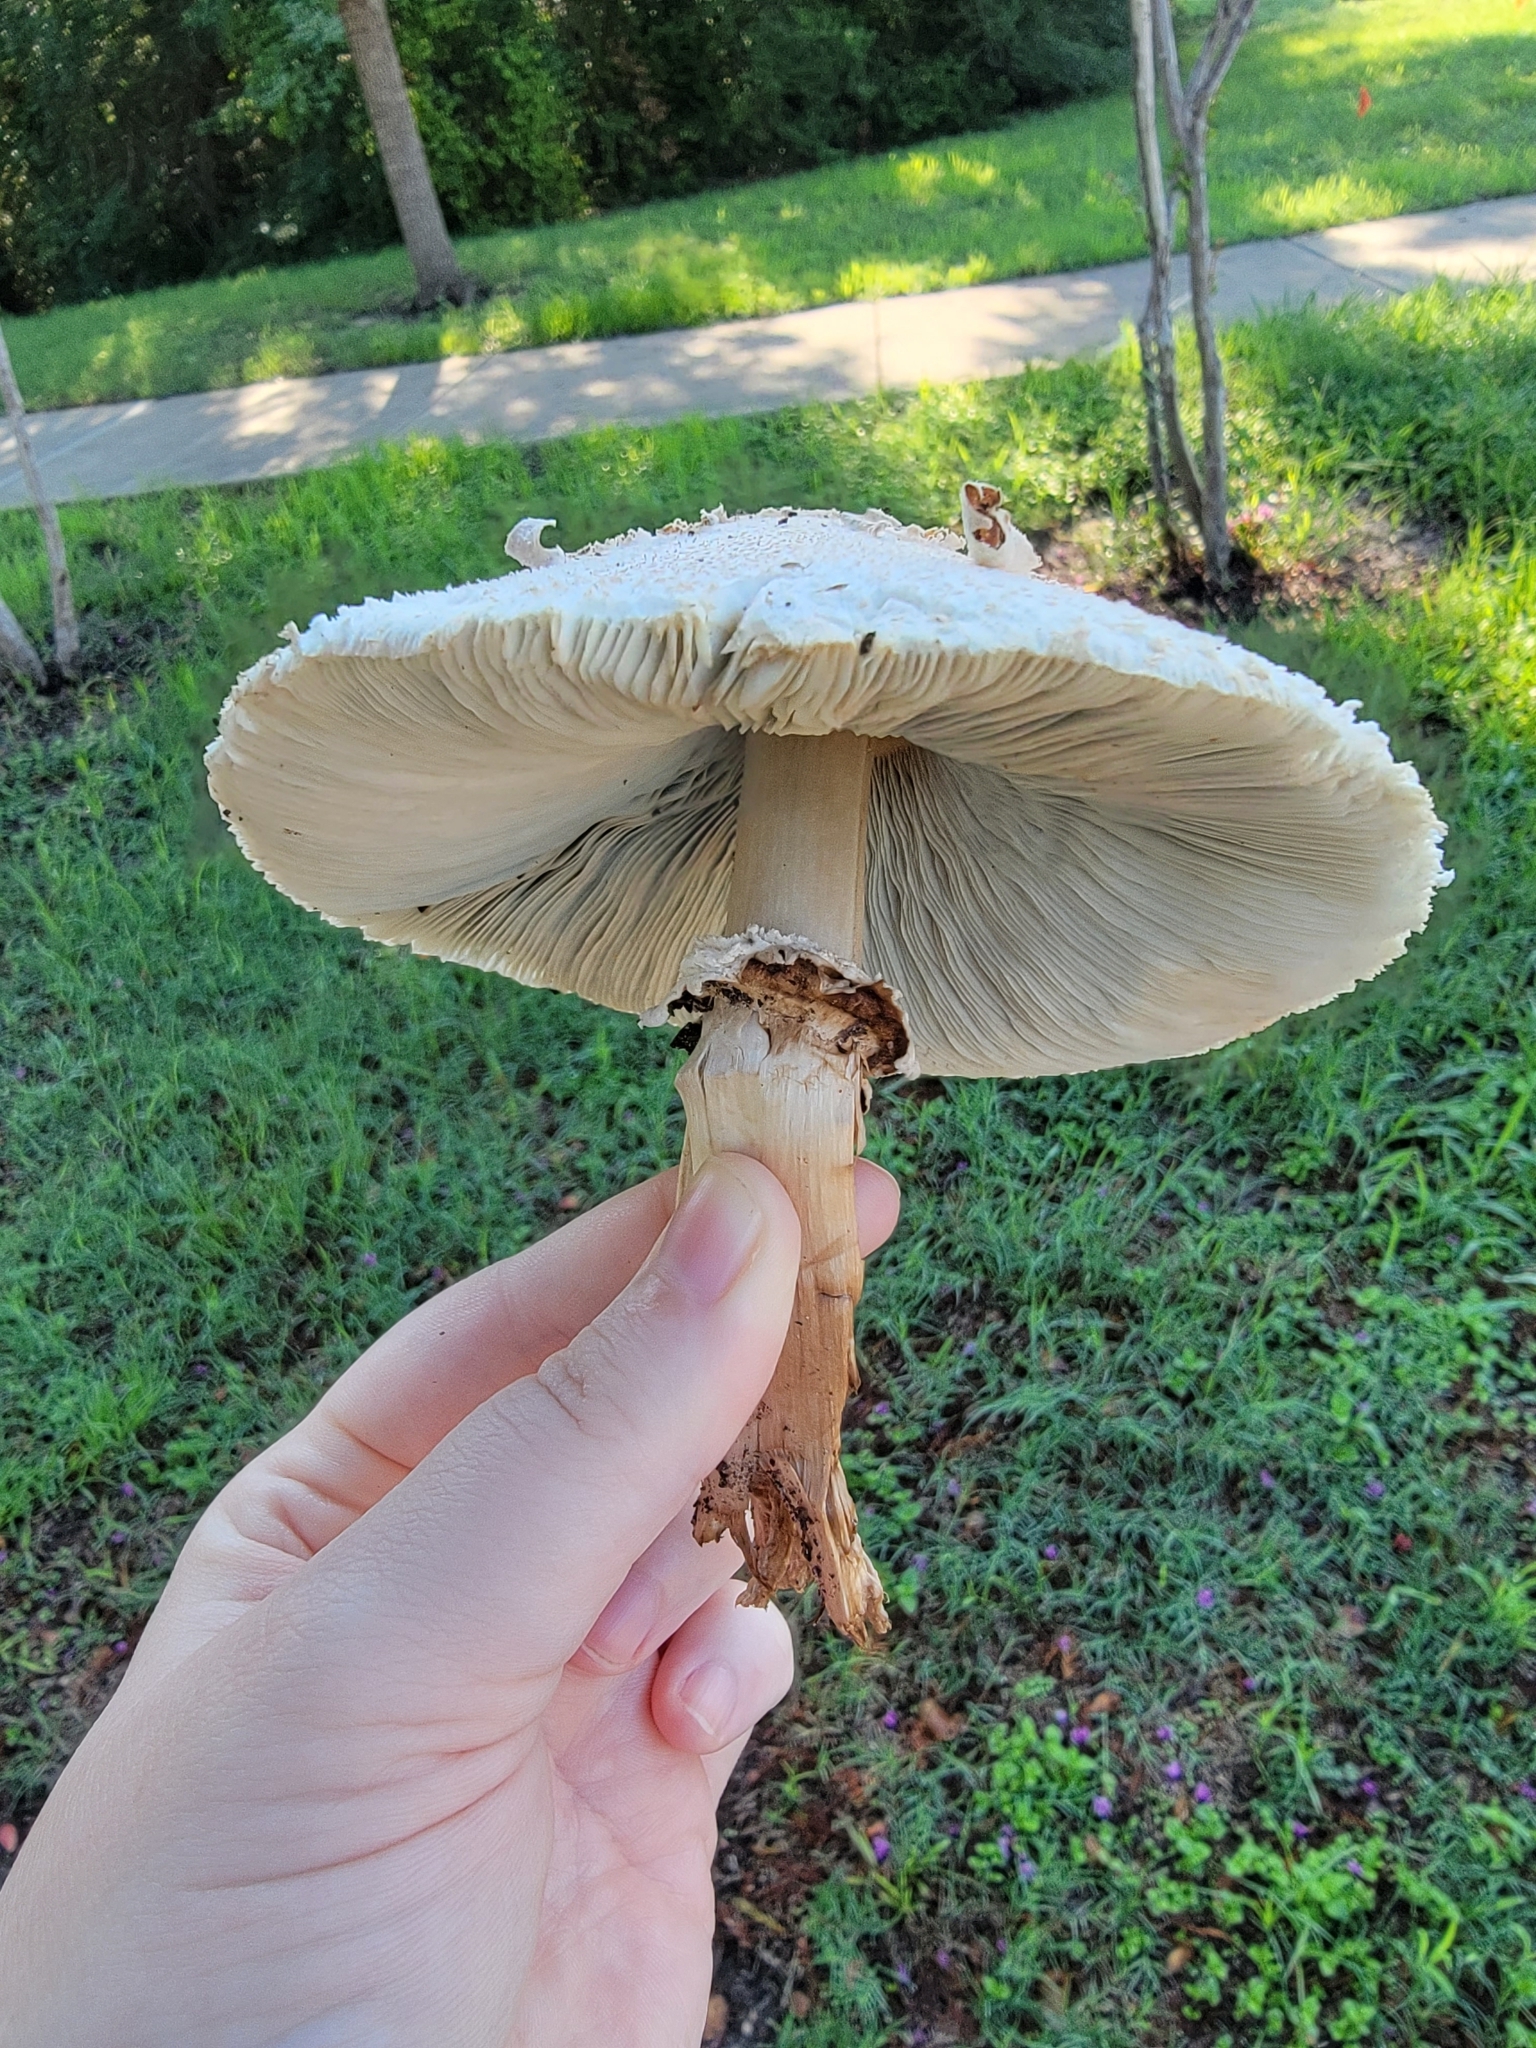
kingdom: Fungi
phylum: Basidiomycota
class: Agaricomycetes
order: Agaricales
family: Agaricaceae
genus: Chlorophyllum
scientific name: Chlorophyllum molybdites
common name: False parasol
